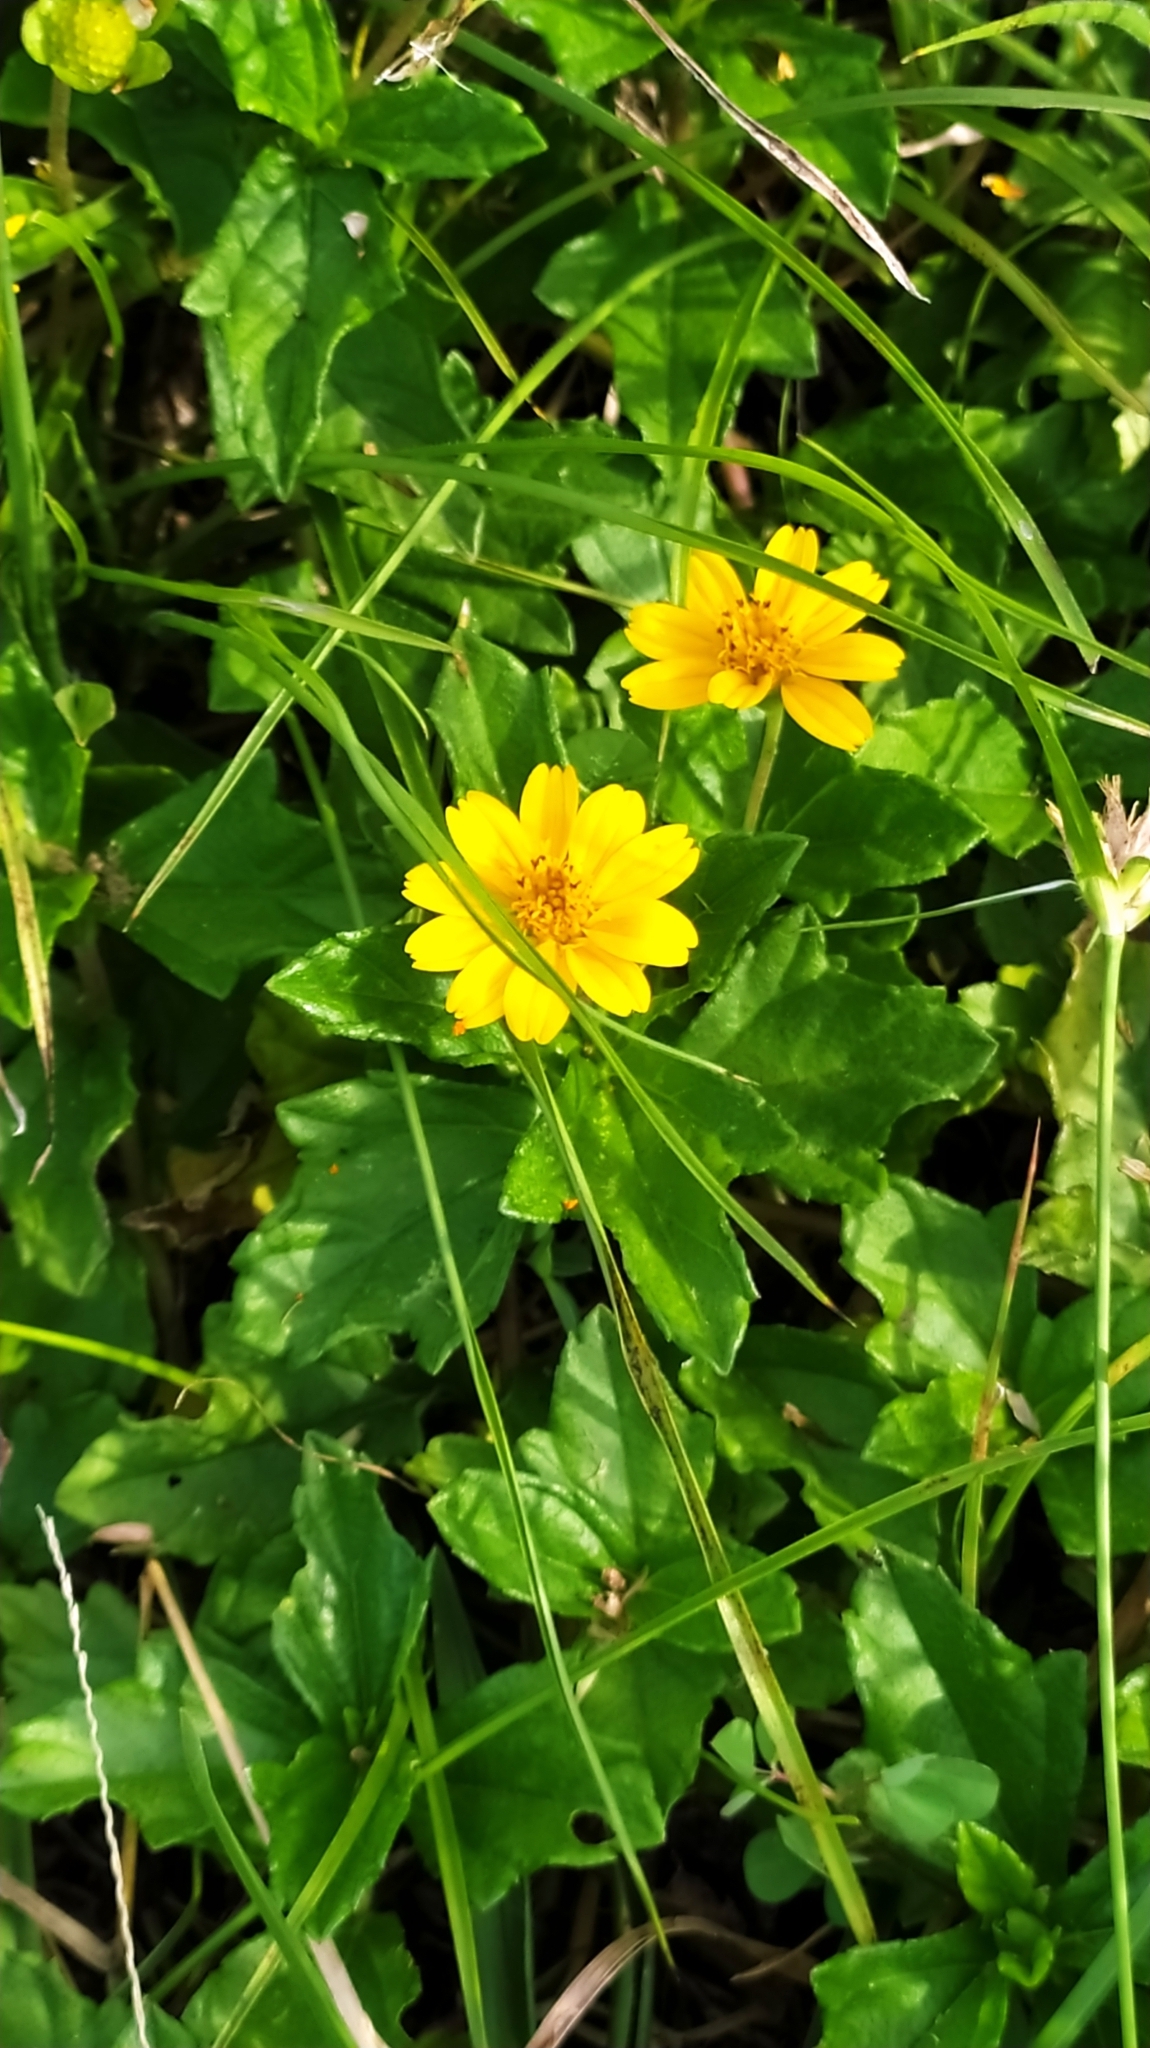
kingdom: Plantae
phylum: Tracheophyta
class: Magnoliopsida
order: Asterales
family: Asteraceae
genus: Sphagneticola
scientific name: Sphagneticola trilobata
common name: Bay biscayne creeping-oxeye
